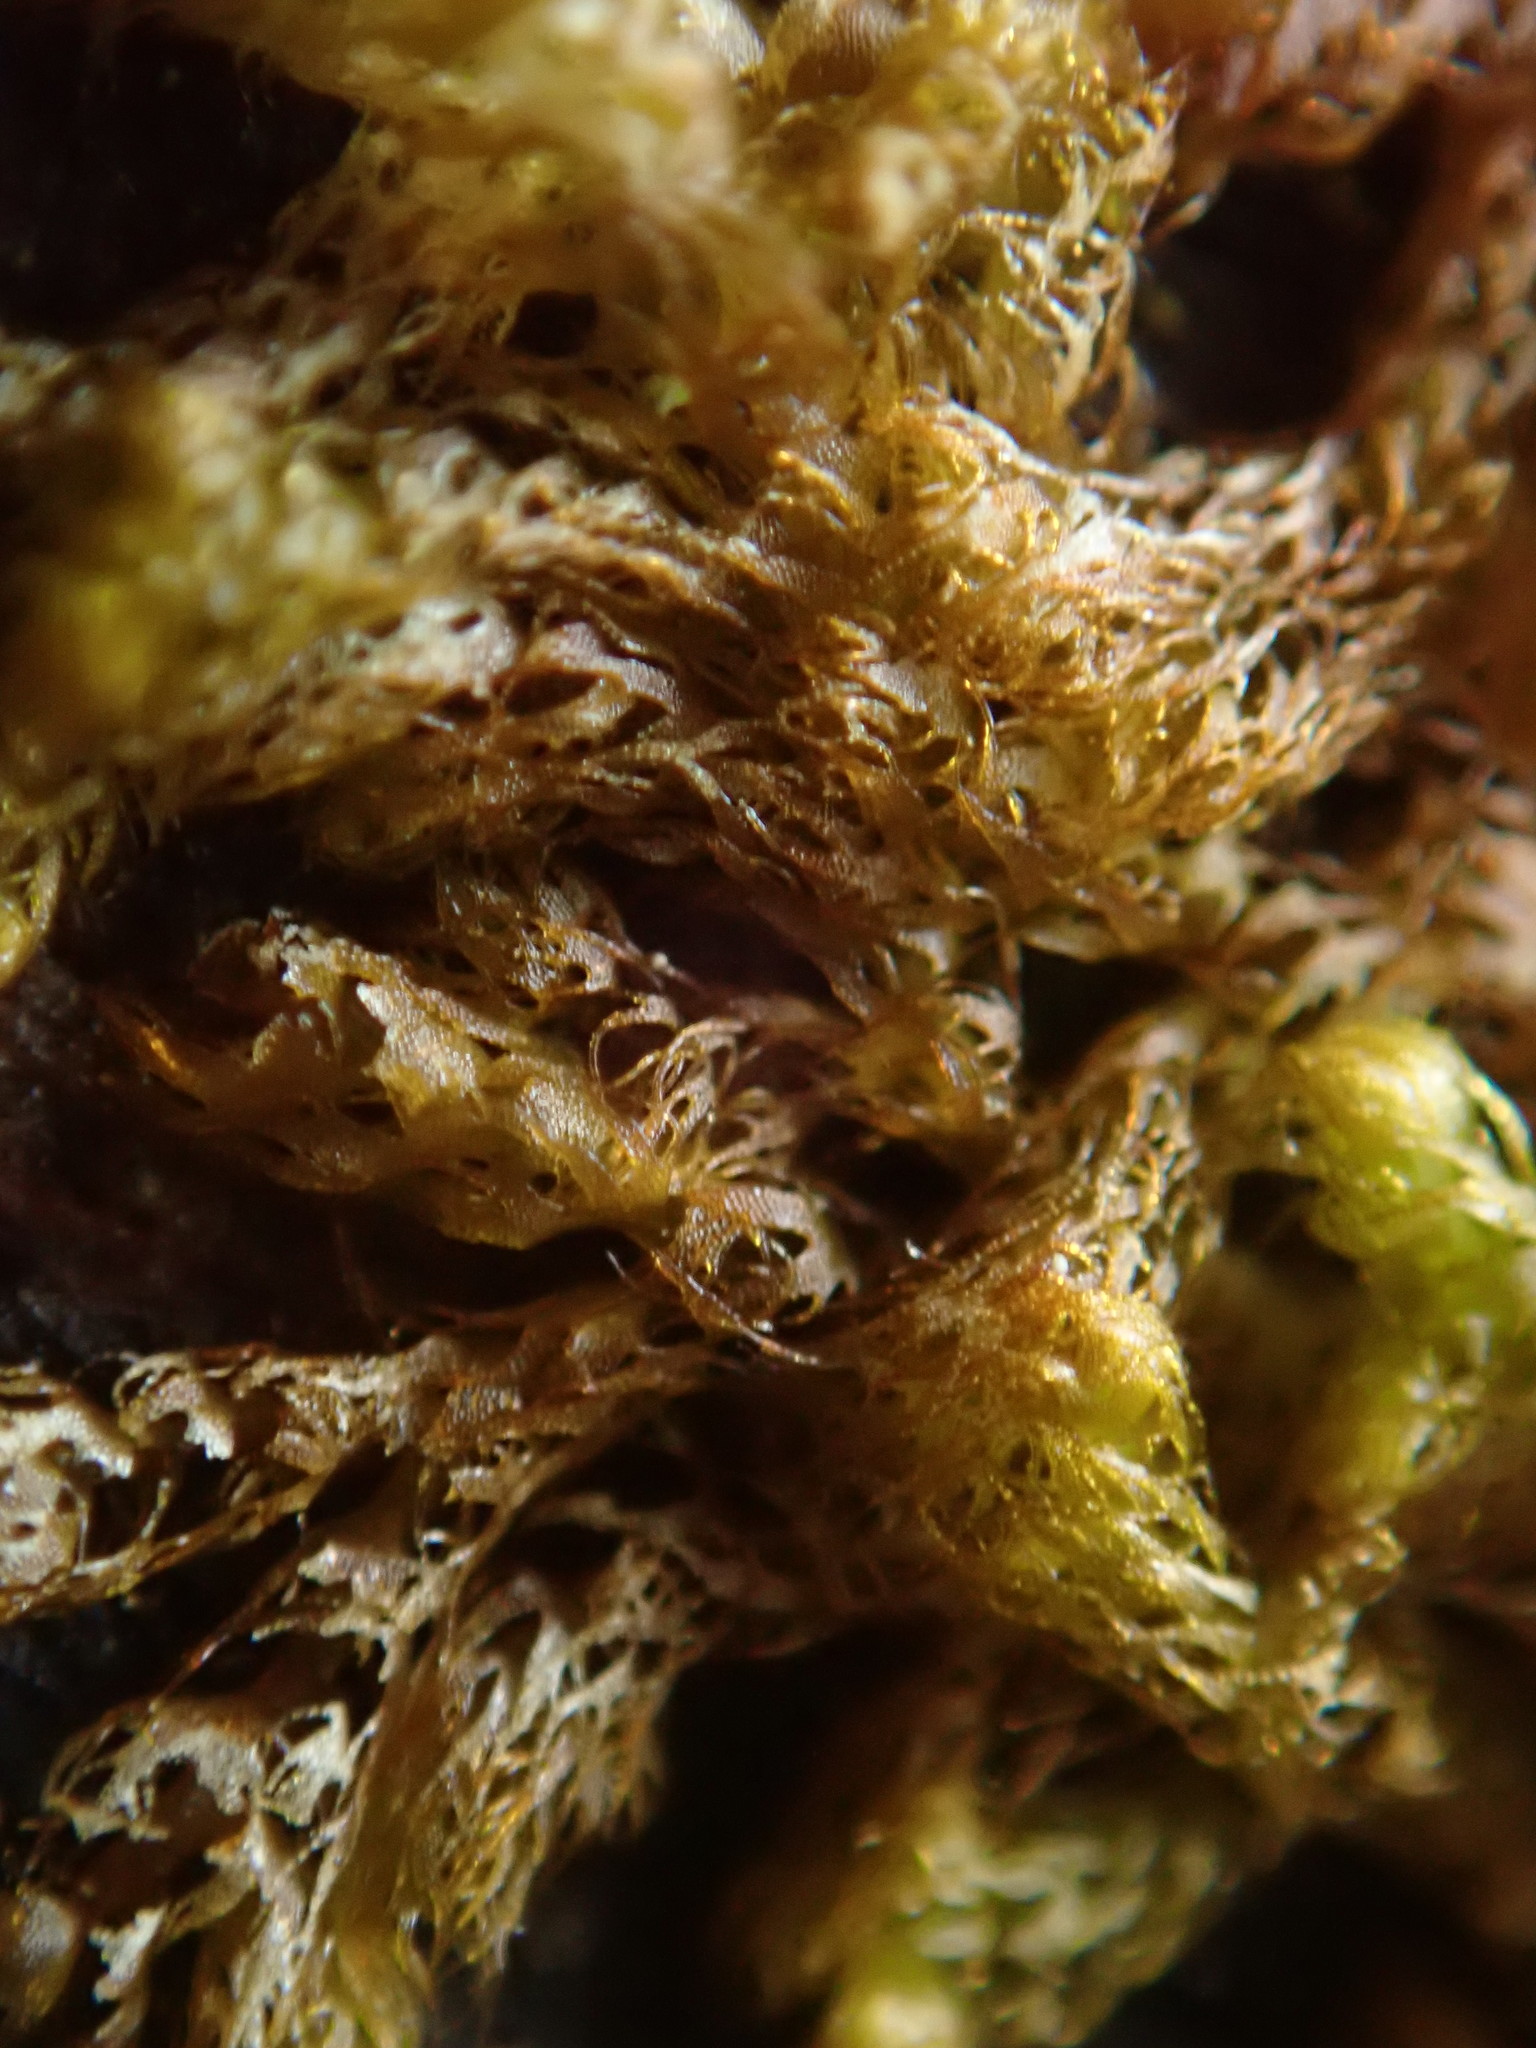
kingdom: Plantae
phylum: Marchantiophyta
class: Jungermanniopsida
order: Ptilidiales
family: Ptilidiaceae
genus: Ptilidium
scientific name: Ptilidium californicum
